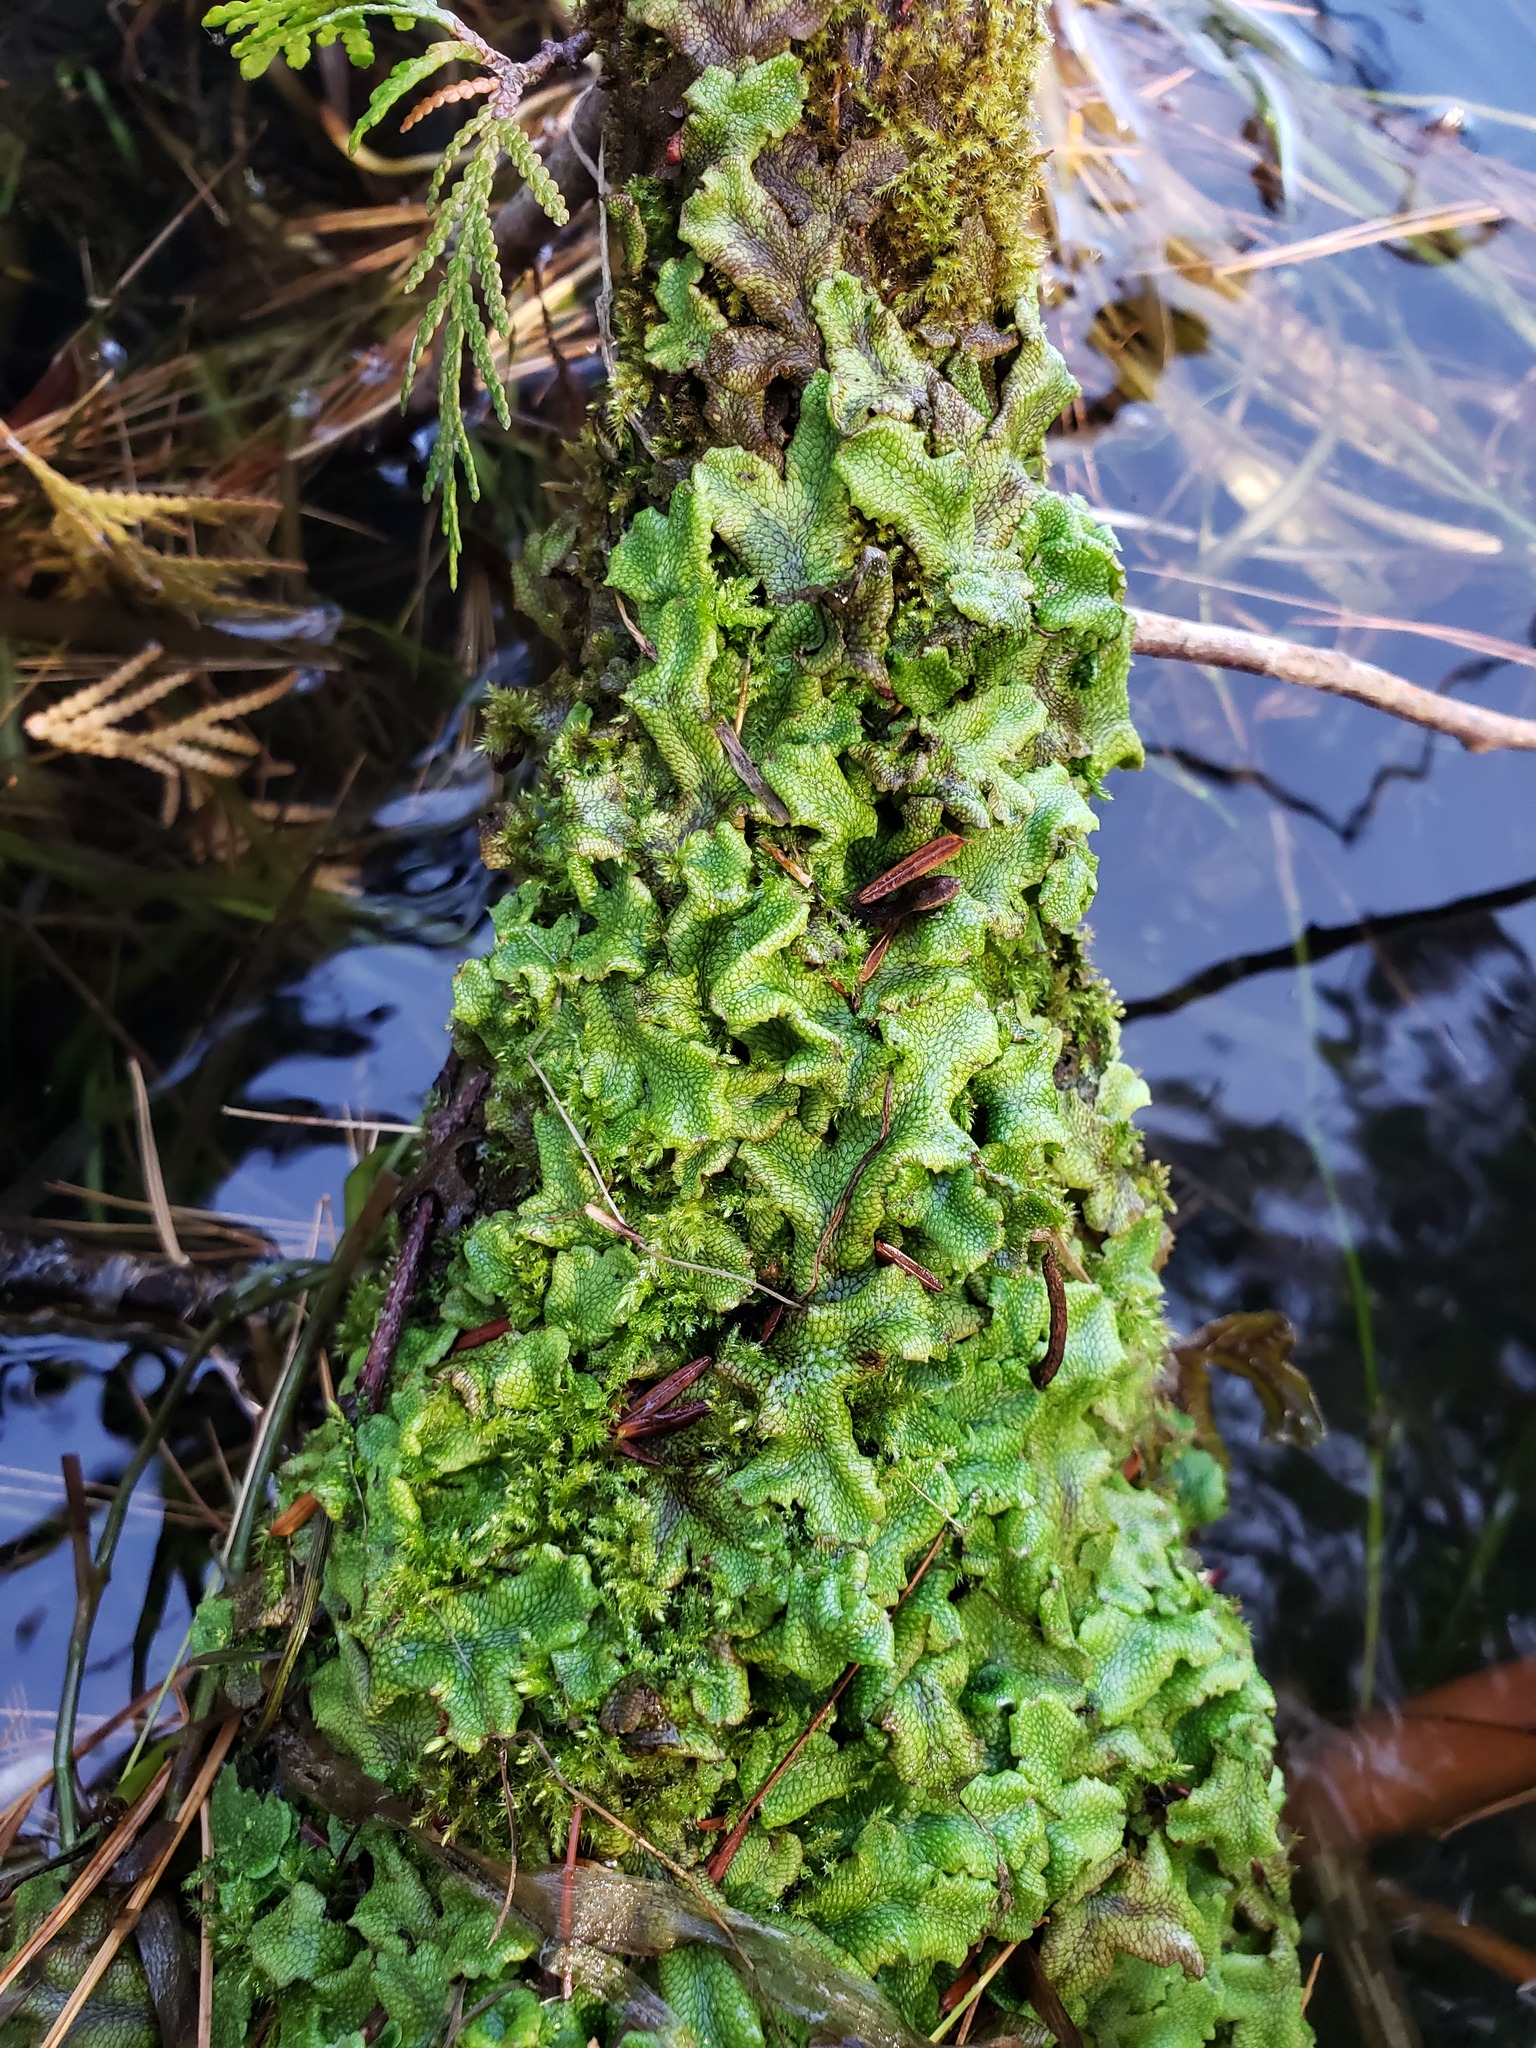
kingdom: Plantae
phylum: Marchantiophyta
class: Marchantiopsida
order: Marchantiales
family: Conocephalaceae
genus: Conocephalum
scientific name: Conocephalum salebrosum
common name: Cat-tongue liverwort
